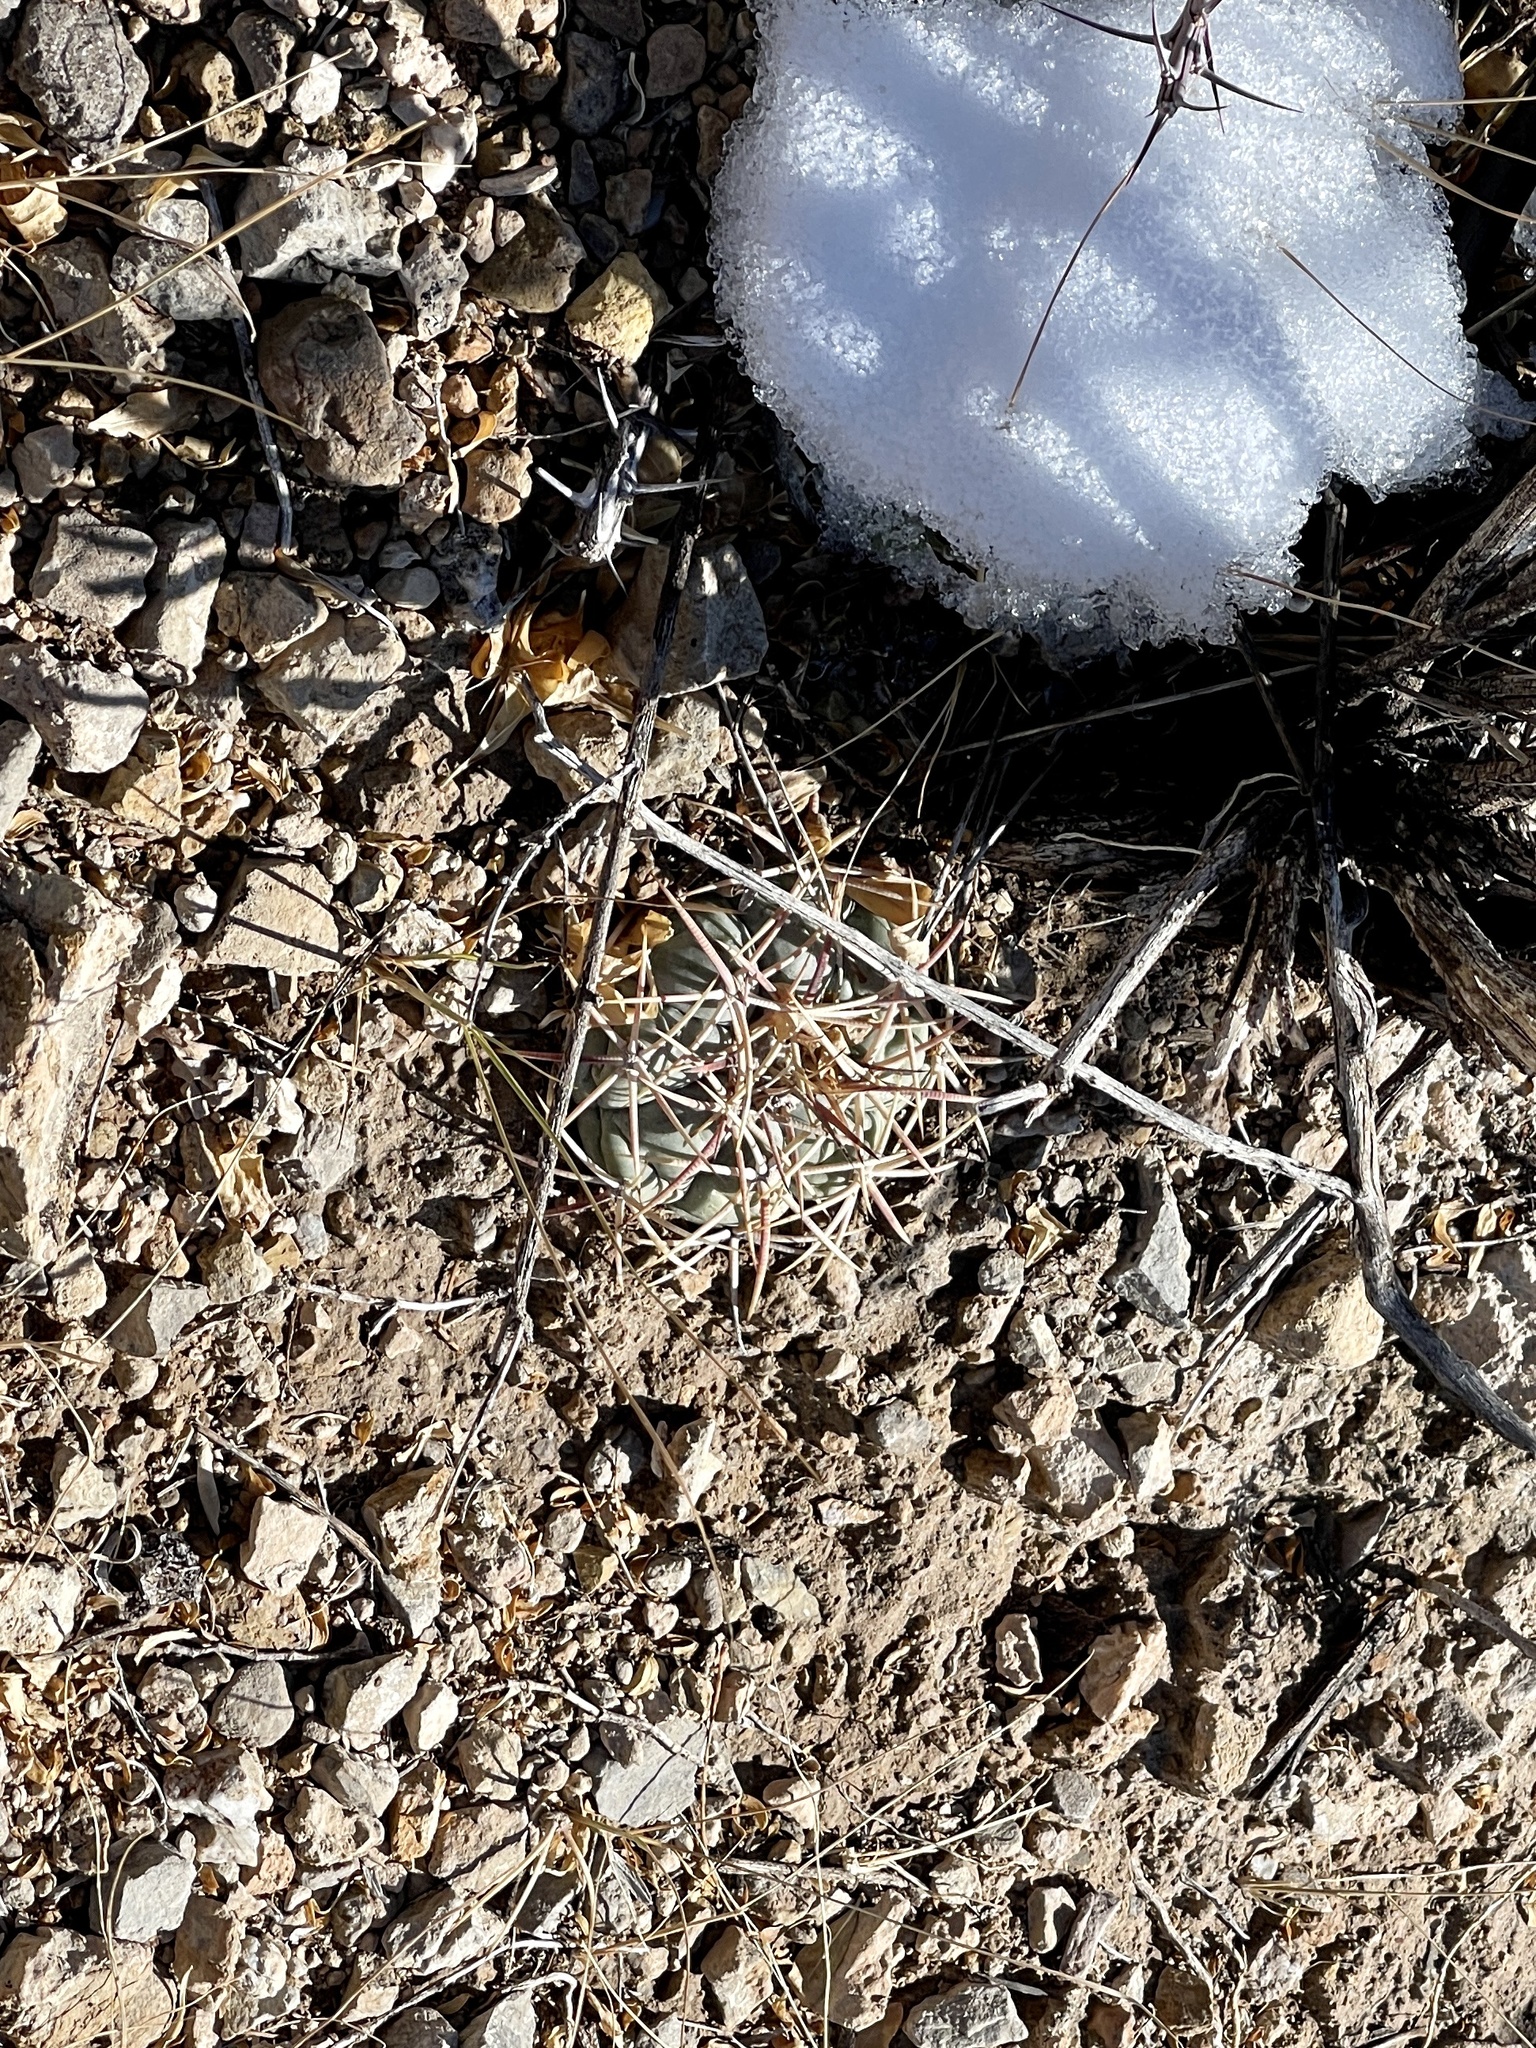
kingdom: Plantae
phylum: Tracheophyta
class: Magnoliopsida
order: Caryophyllales
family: Cactaceae
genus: Echinocactus
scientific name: Echinocactus horizonthalonius
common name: Devilshead
